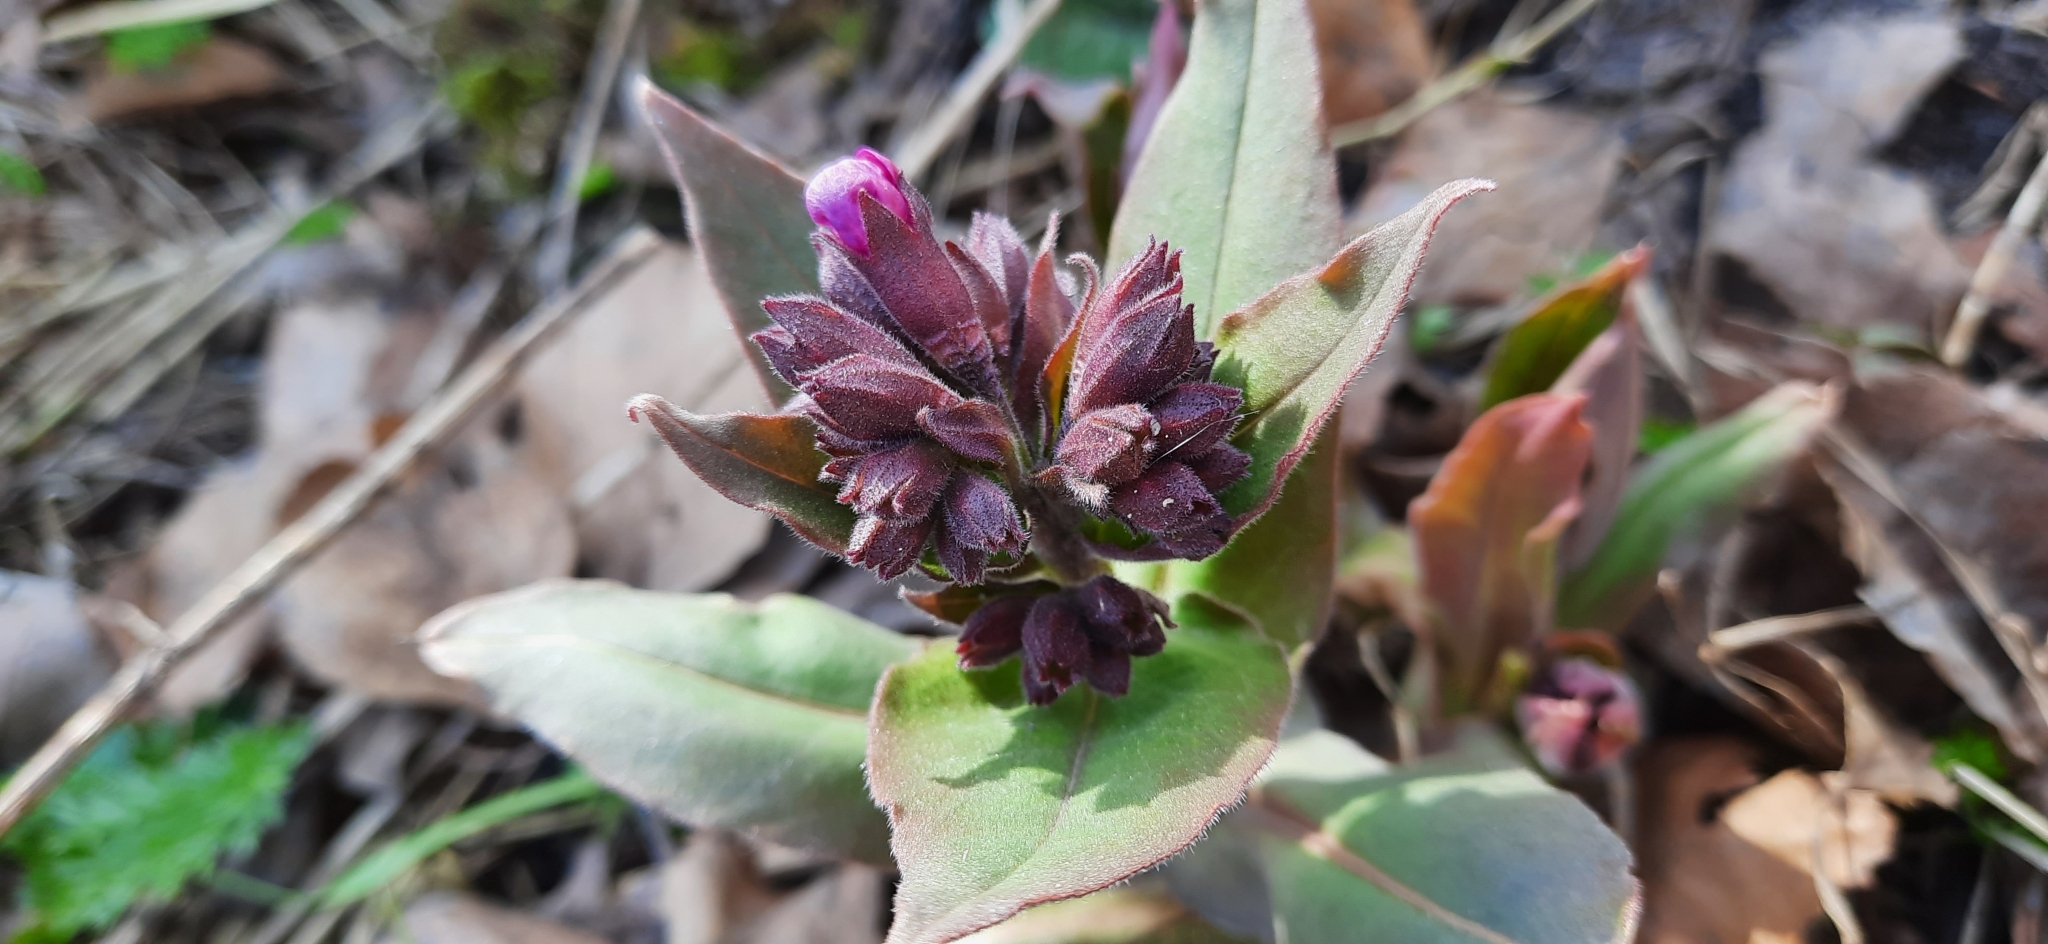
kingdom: Plantae
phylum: Tracheophyta
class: Magnoliopsida
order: Boraginales
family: Boraginaceae
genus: Pulmonaria
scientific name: Pulmonaria mollis
